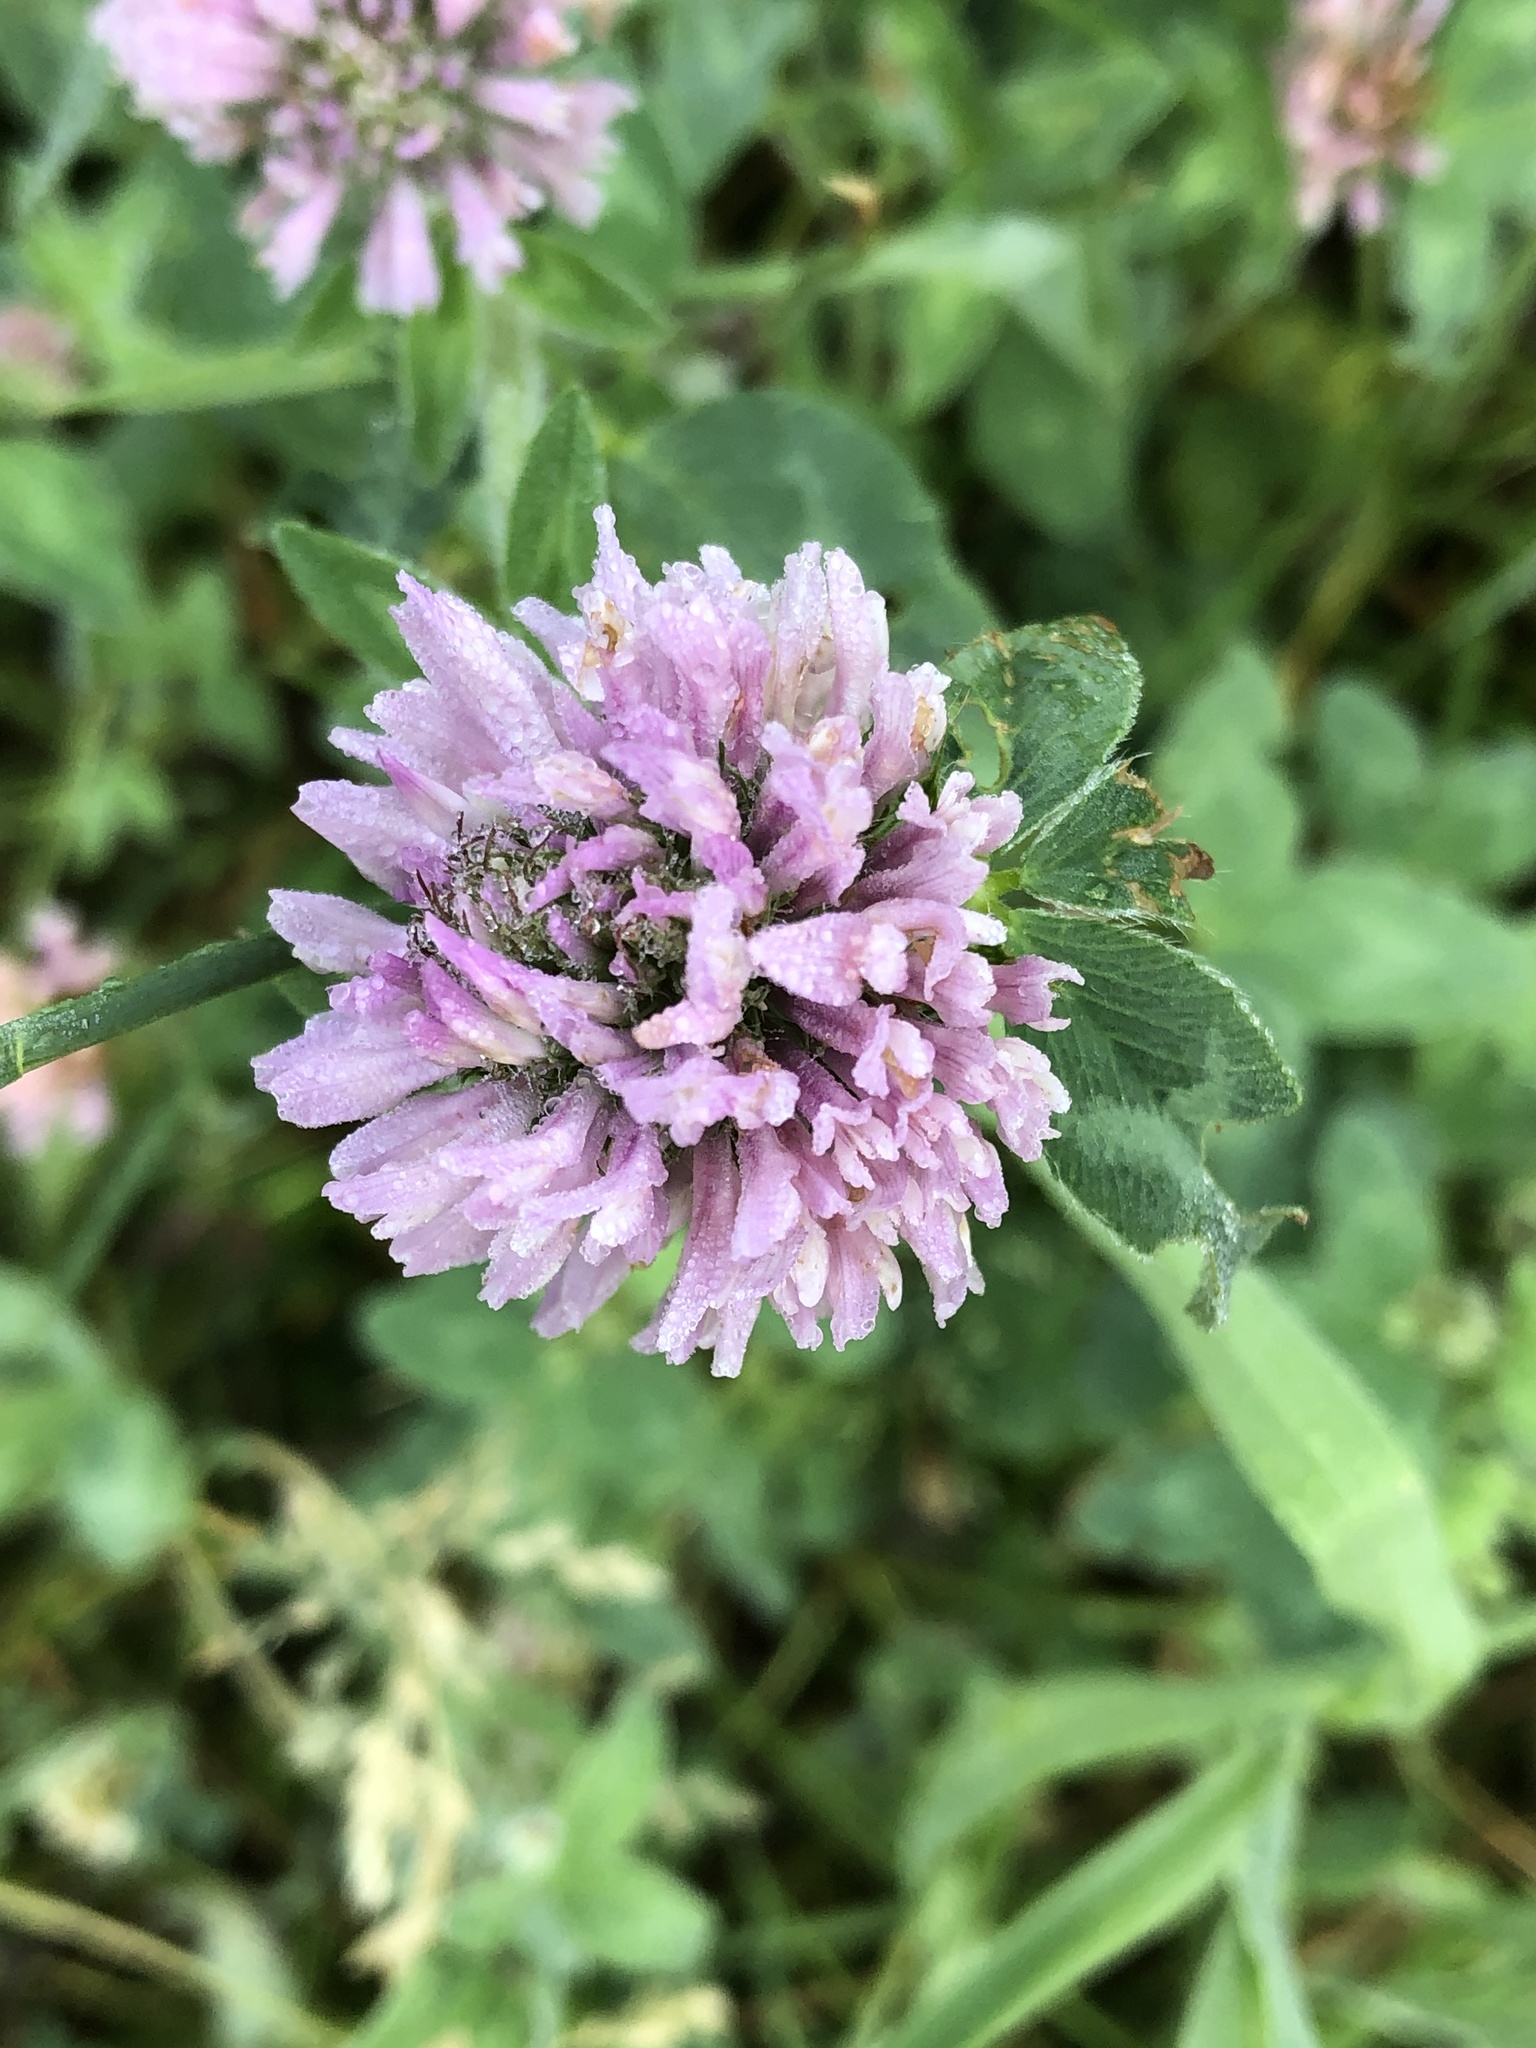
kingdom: Plantae
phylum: Tracheophyta
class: Magnoliopsida
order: Fabales
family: Fabaceae
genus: Trifolium
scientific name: Trifolium pratense
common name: Red clover
